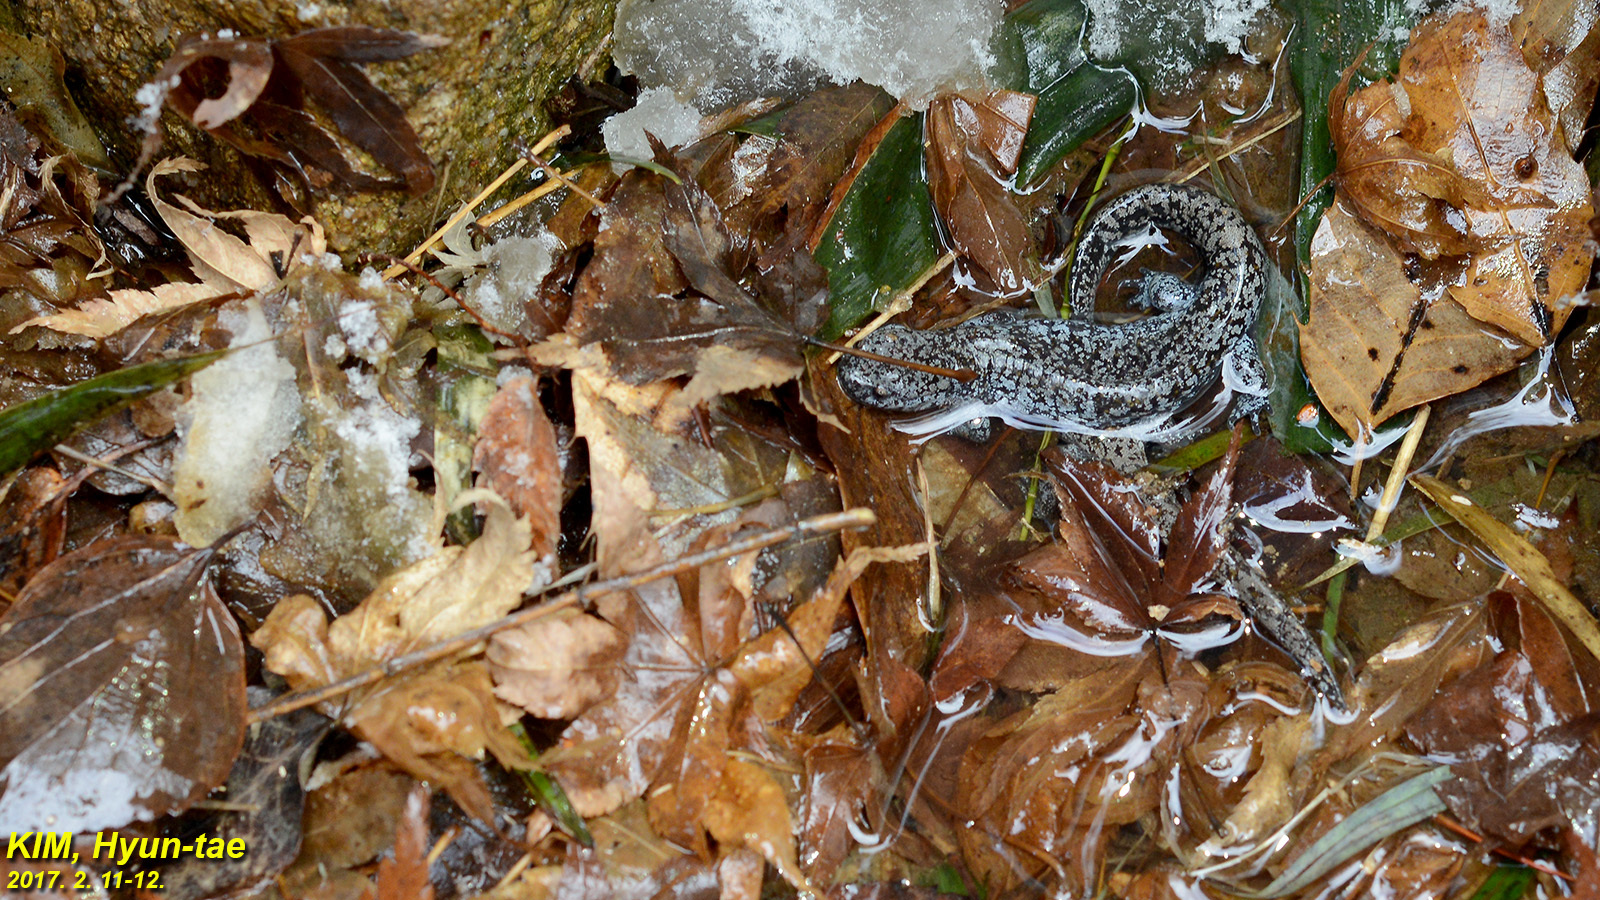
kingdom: Animalia
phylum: Chordata
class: Amphibia
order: Caudata
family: Hynobiidae
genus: Hynobius
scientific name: Hynobius quelpaertensis
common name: Cheju salamander
